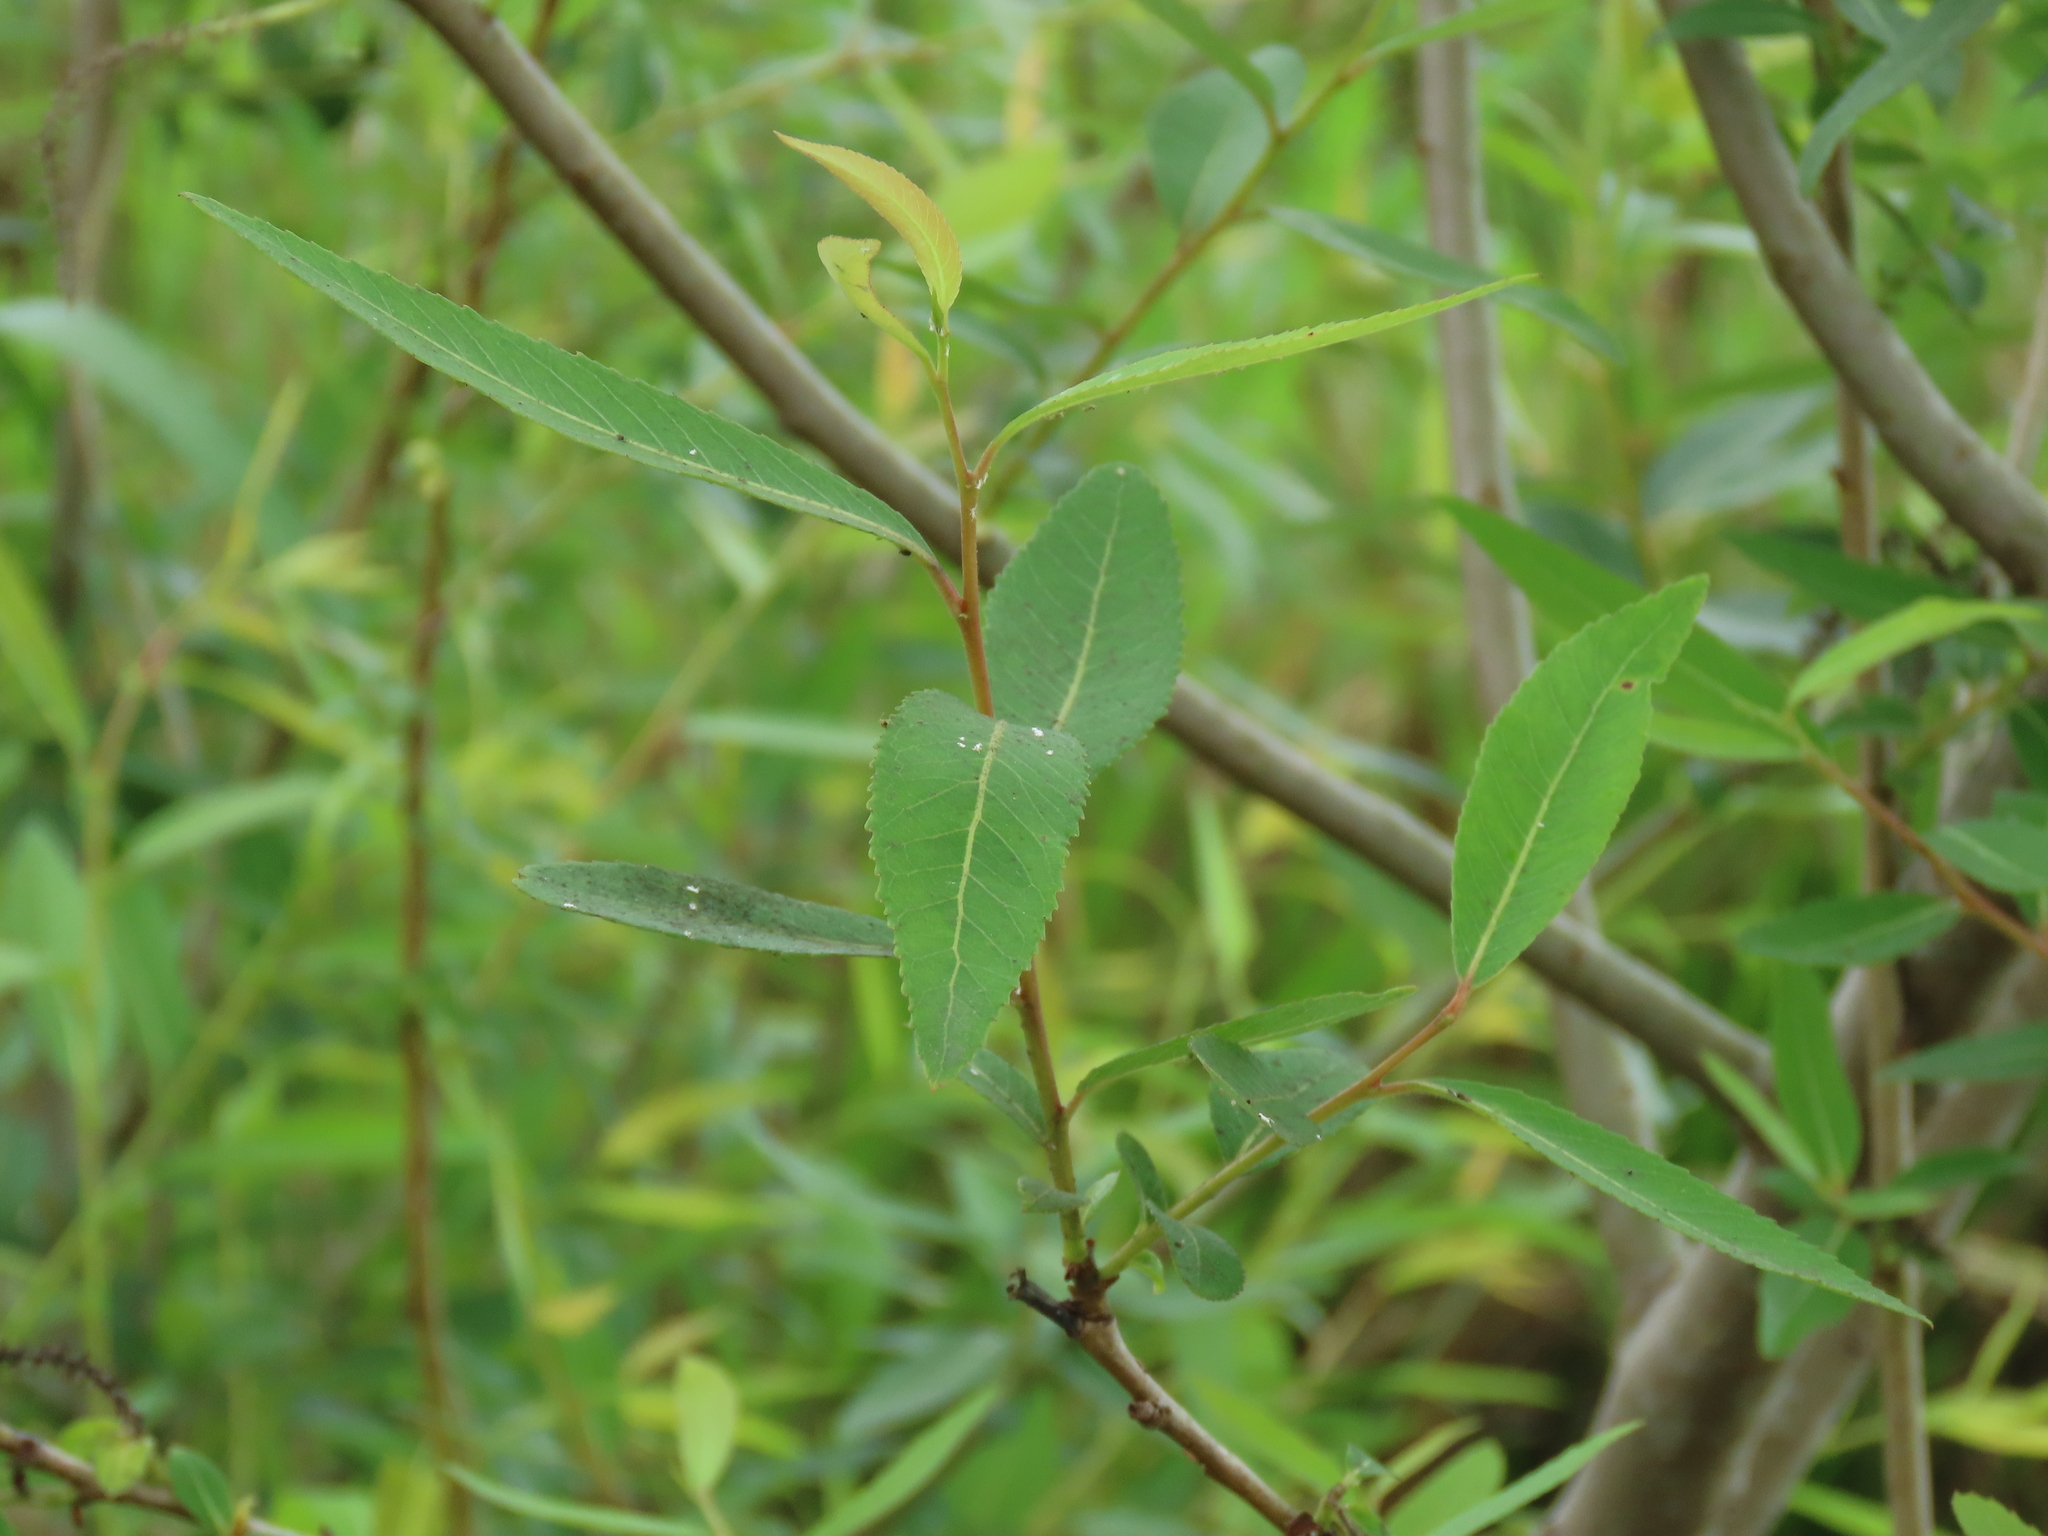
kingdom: Plantae
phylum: Tracheophyta
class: Magnoliopsida
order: Malpighiales
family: Salicaceae
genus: Salix
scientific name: Salix mesnyi
